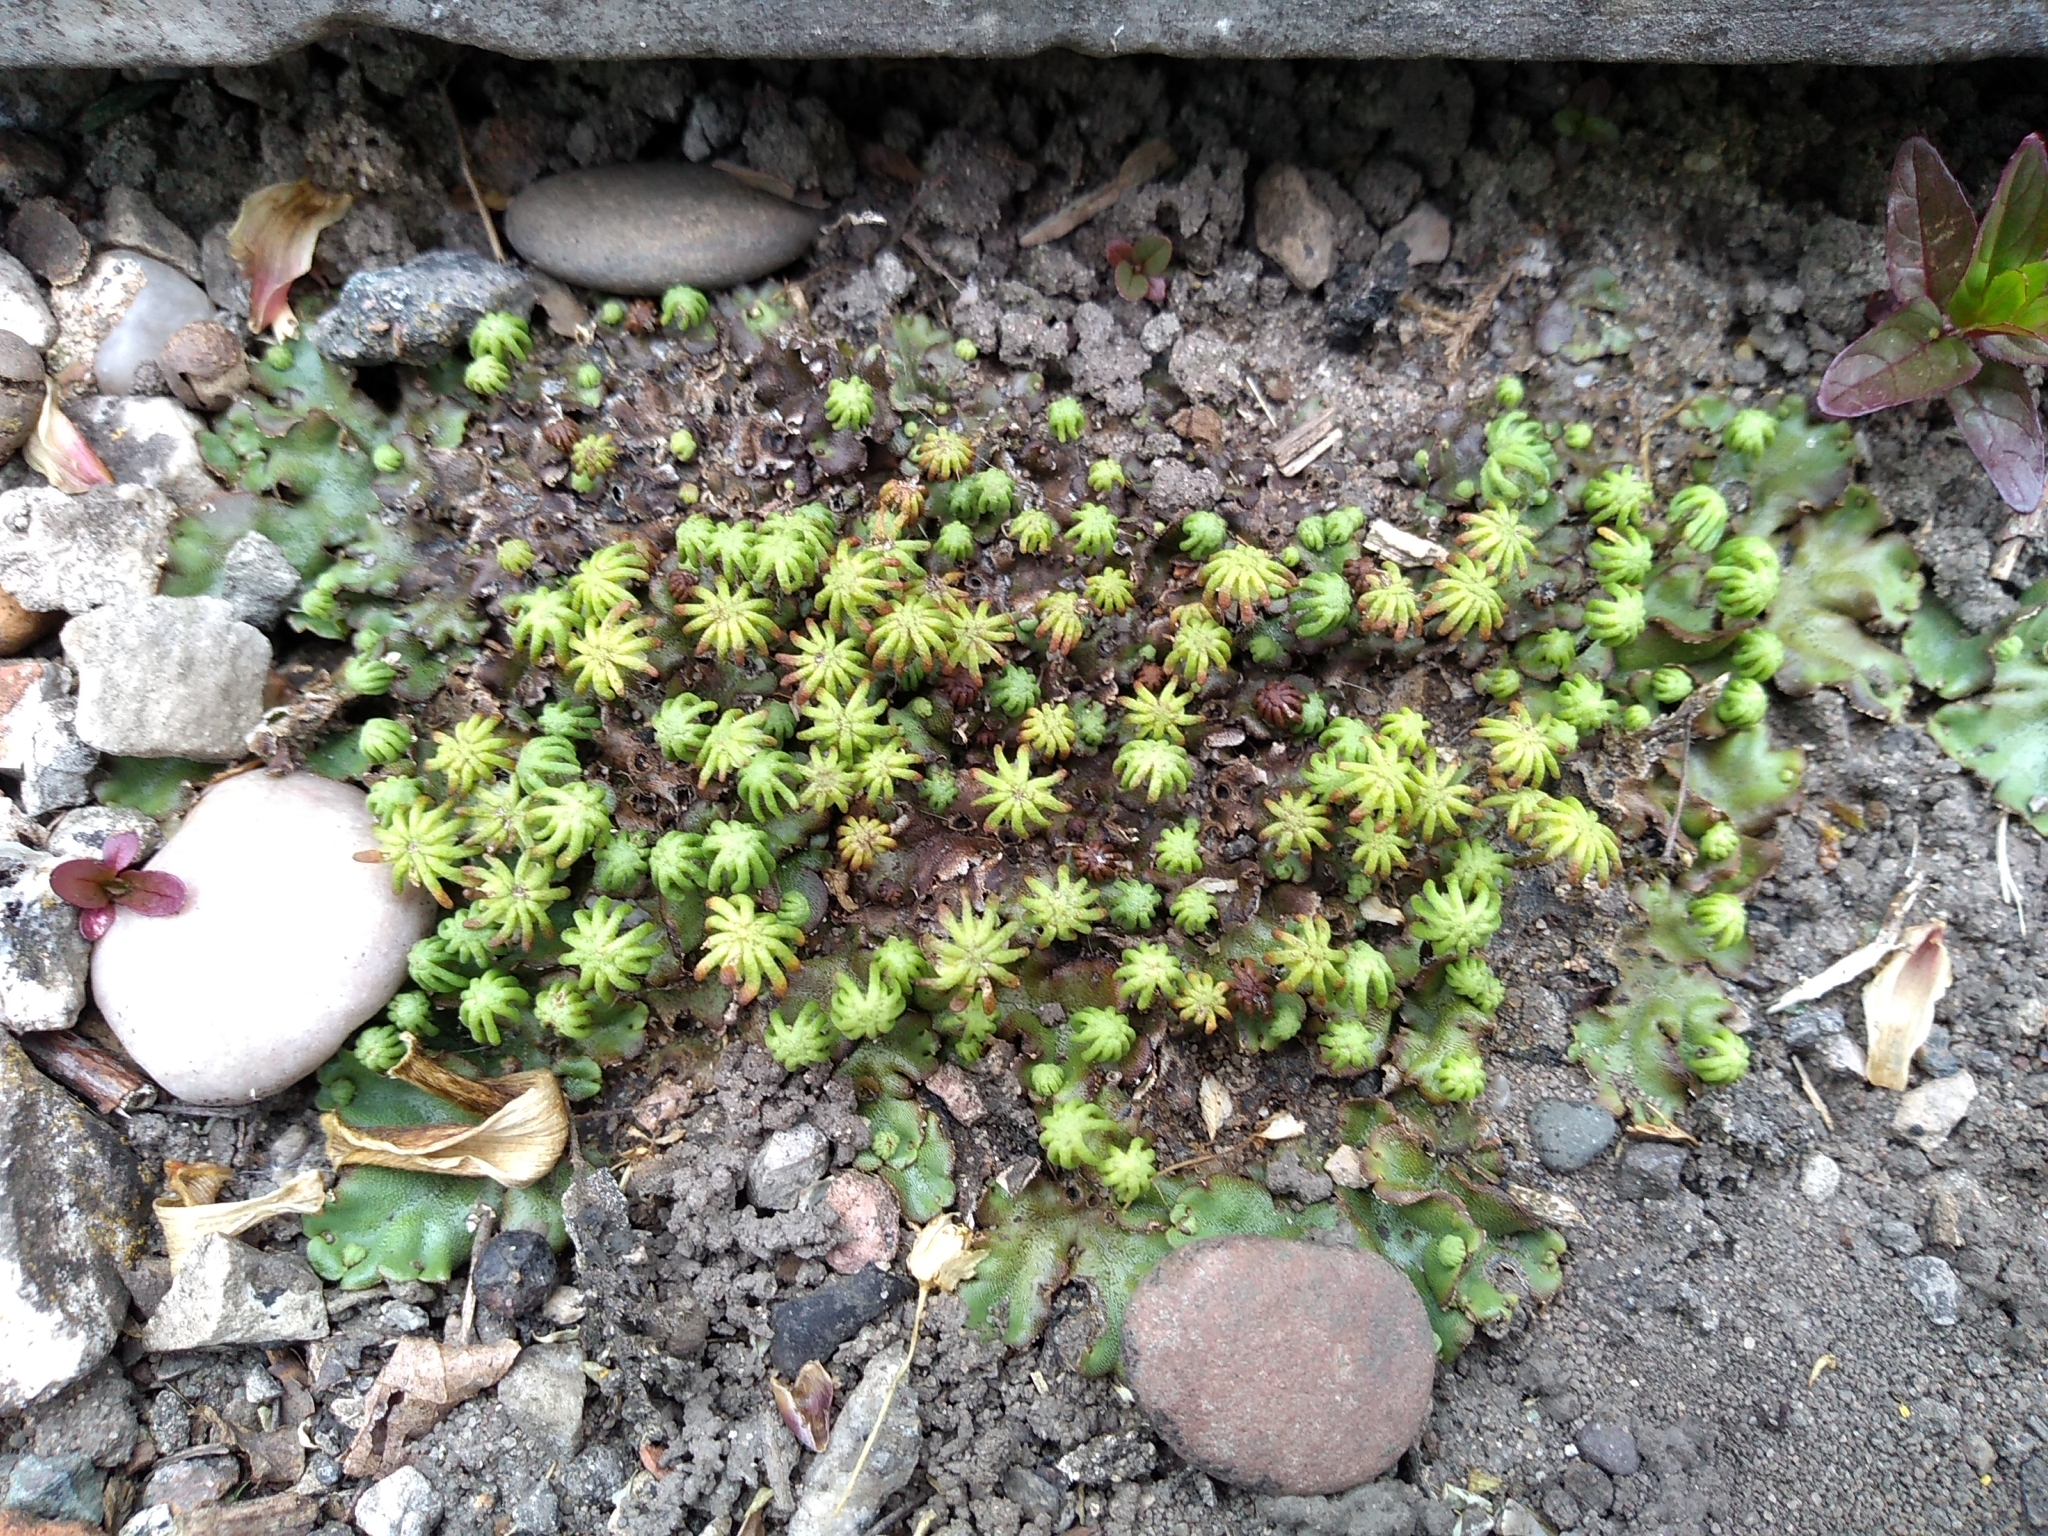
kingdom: Plantae
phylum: Marchantiophyta
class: Marchantiopsida
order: Marchantiales
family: Marchantiaceae
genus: Marchantia
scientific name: Marchantia polymorpha
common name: Common liverwort
